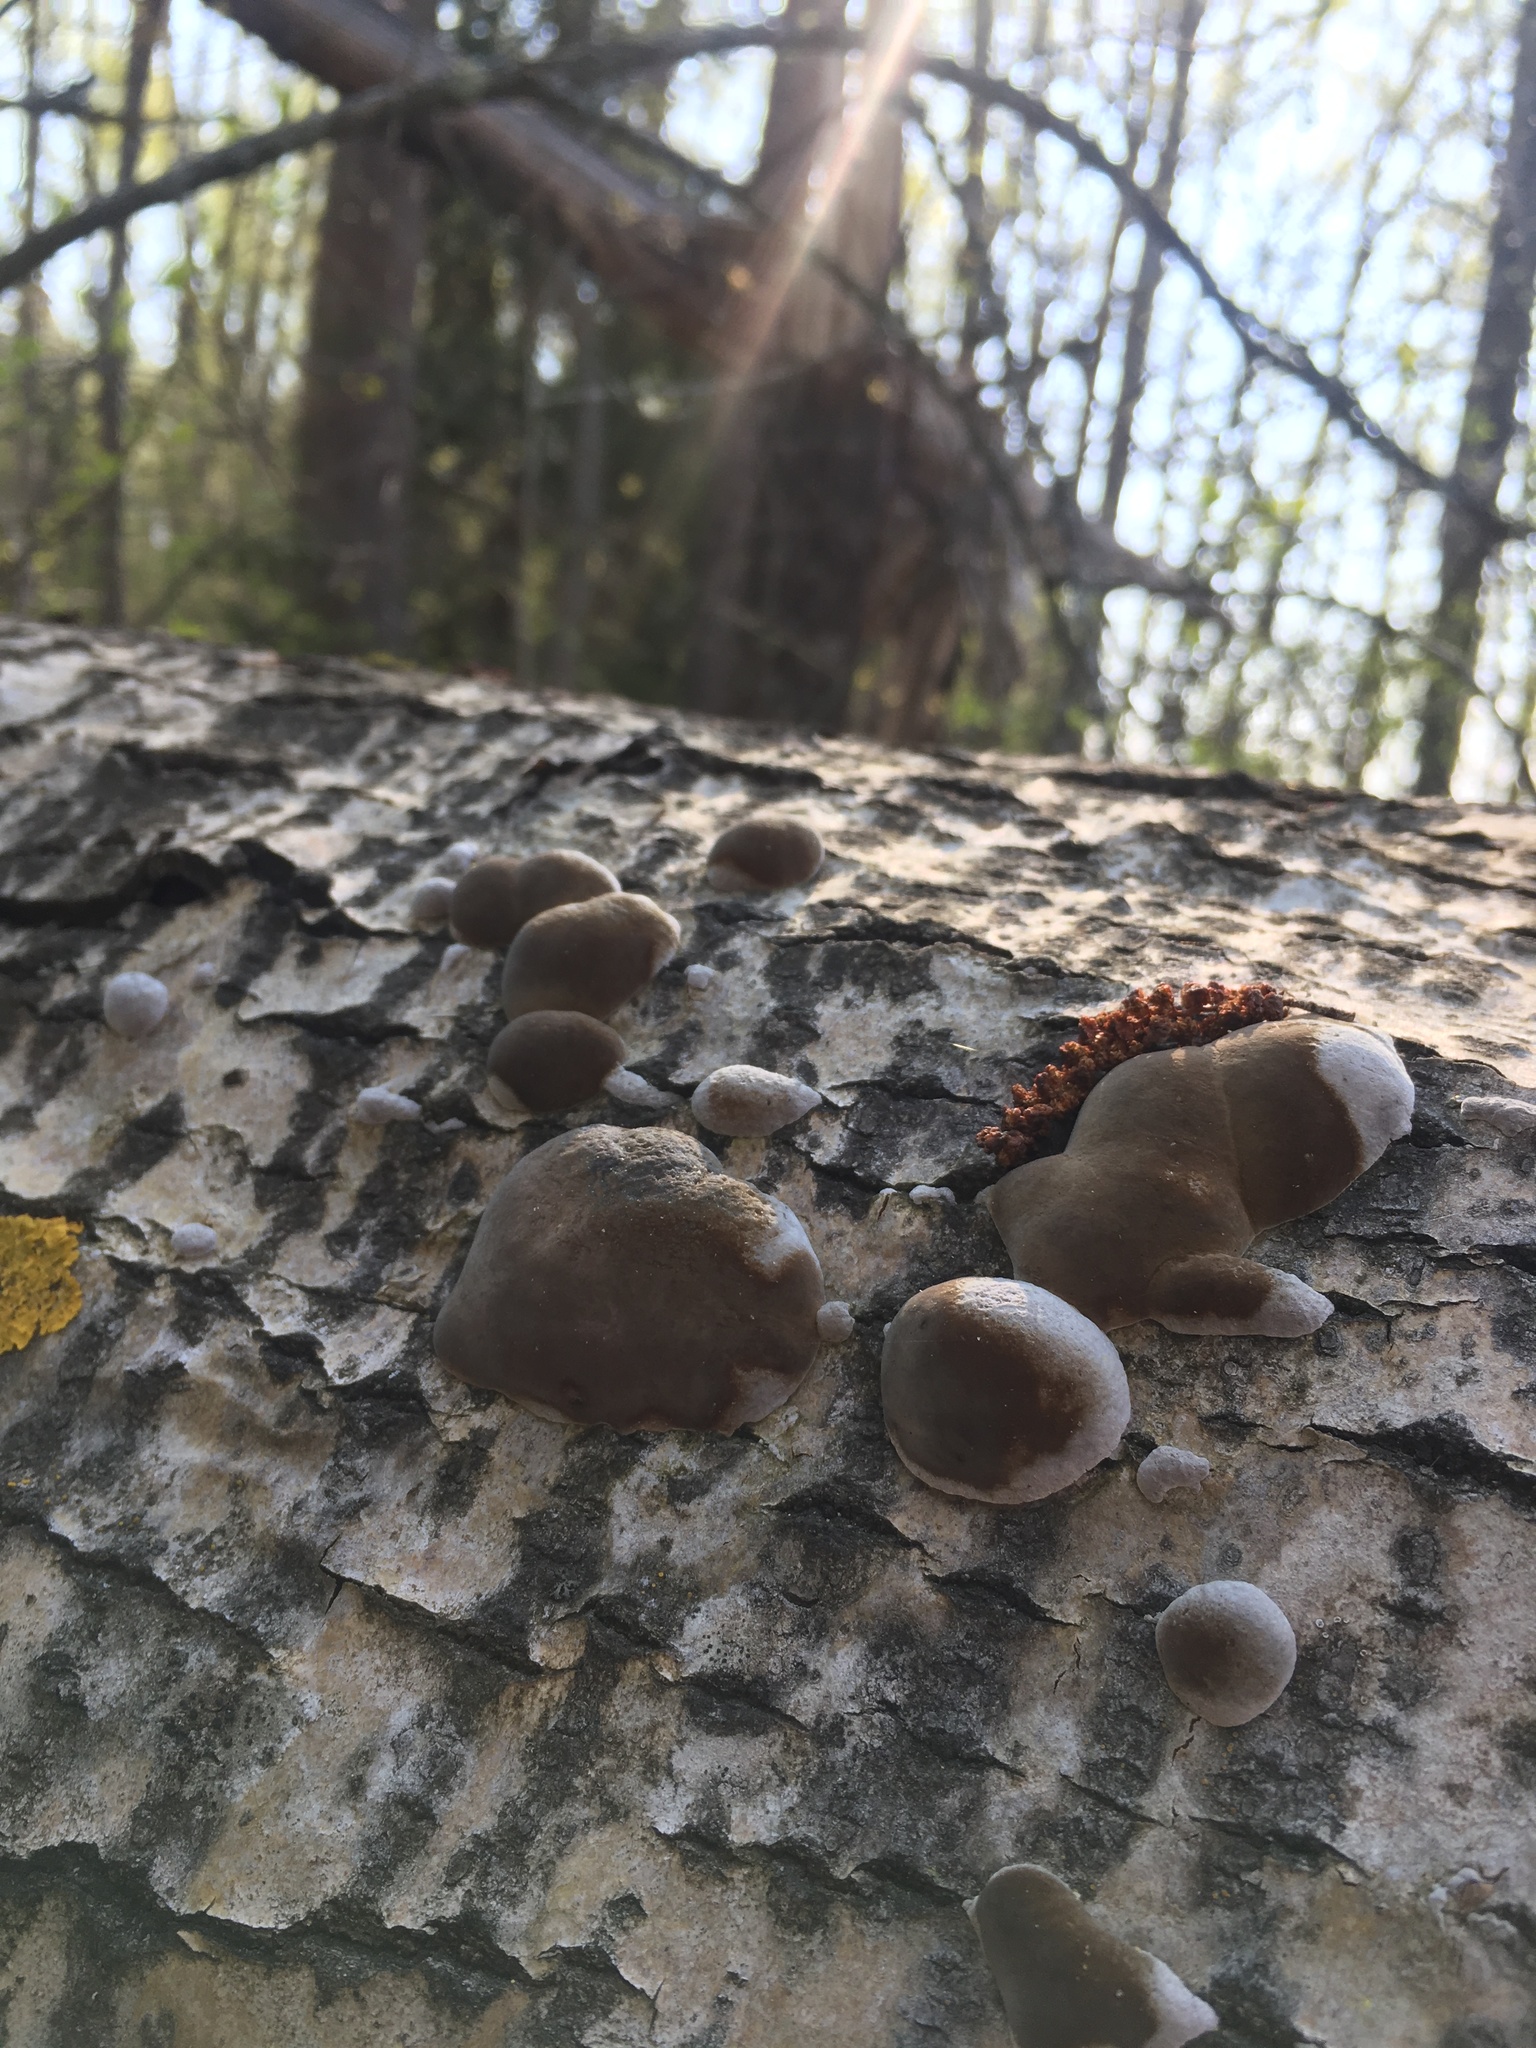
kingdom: Fungi
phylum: Basidiomycota
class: Agaricomycetes
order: Hymenochaetales
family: Hymenochaetaceae
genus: Phellinus
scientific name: Phellinus tremulae
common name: Aspen bracket
